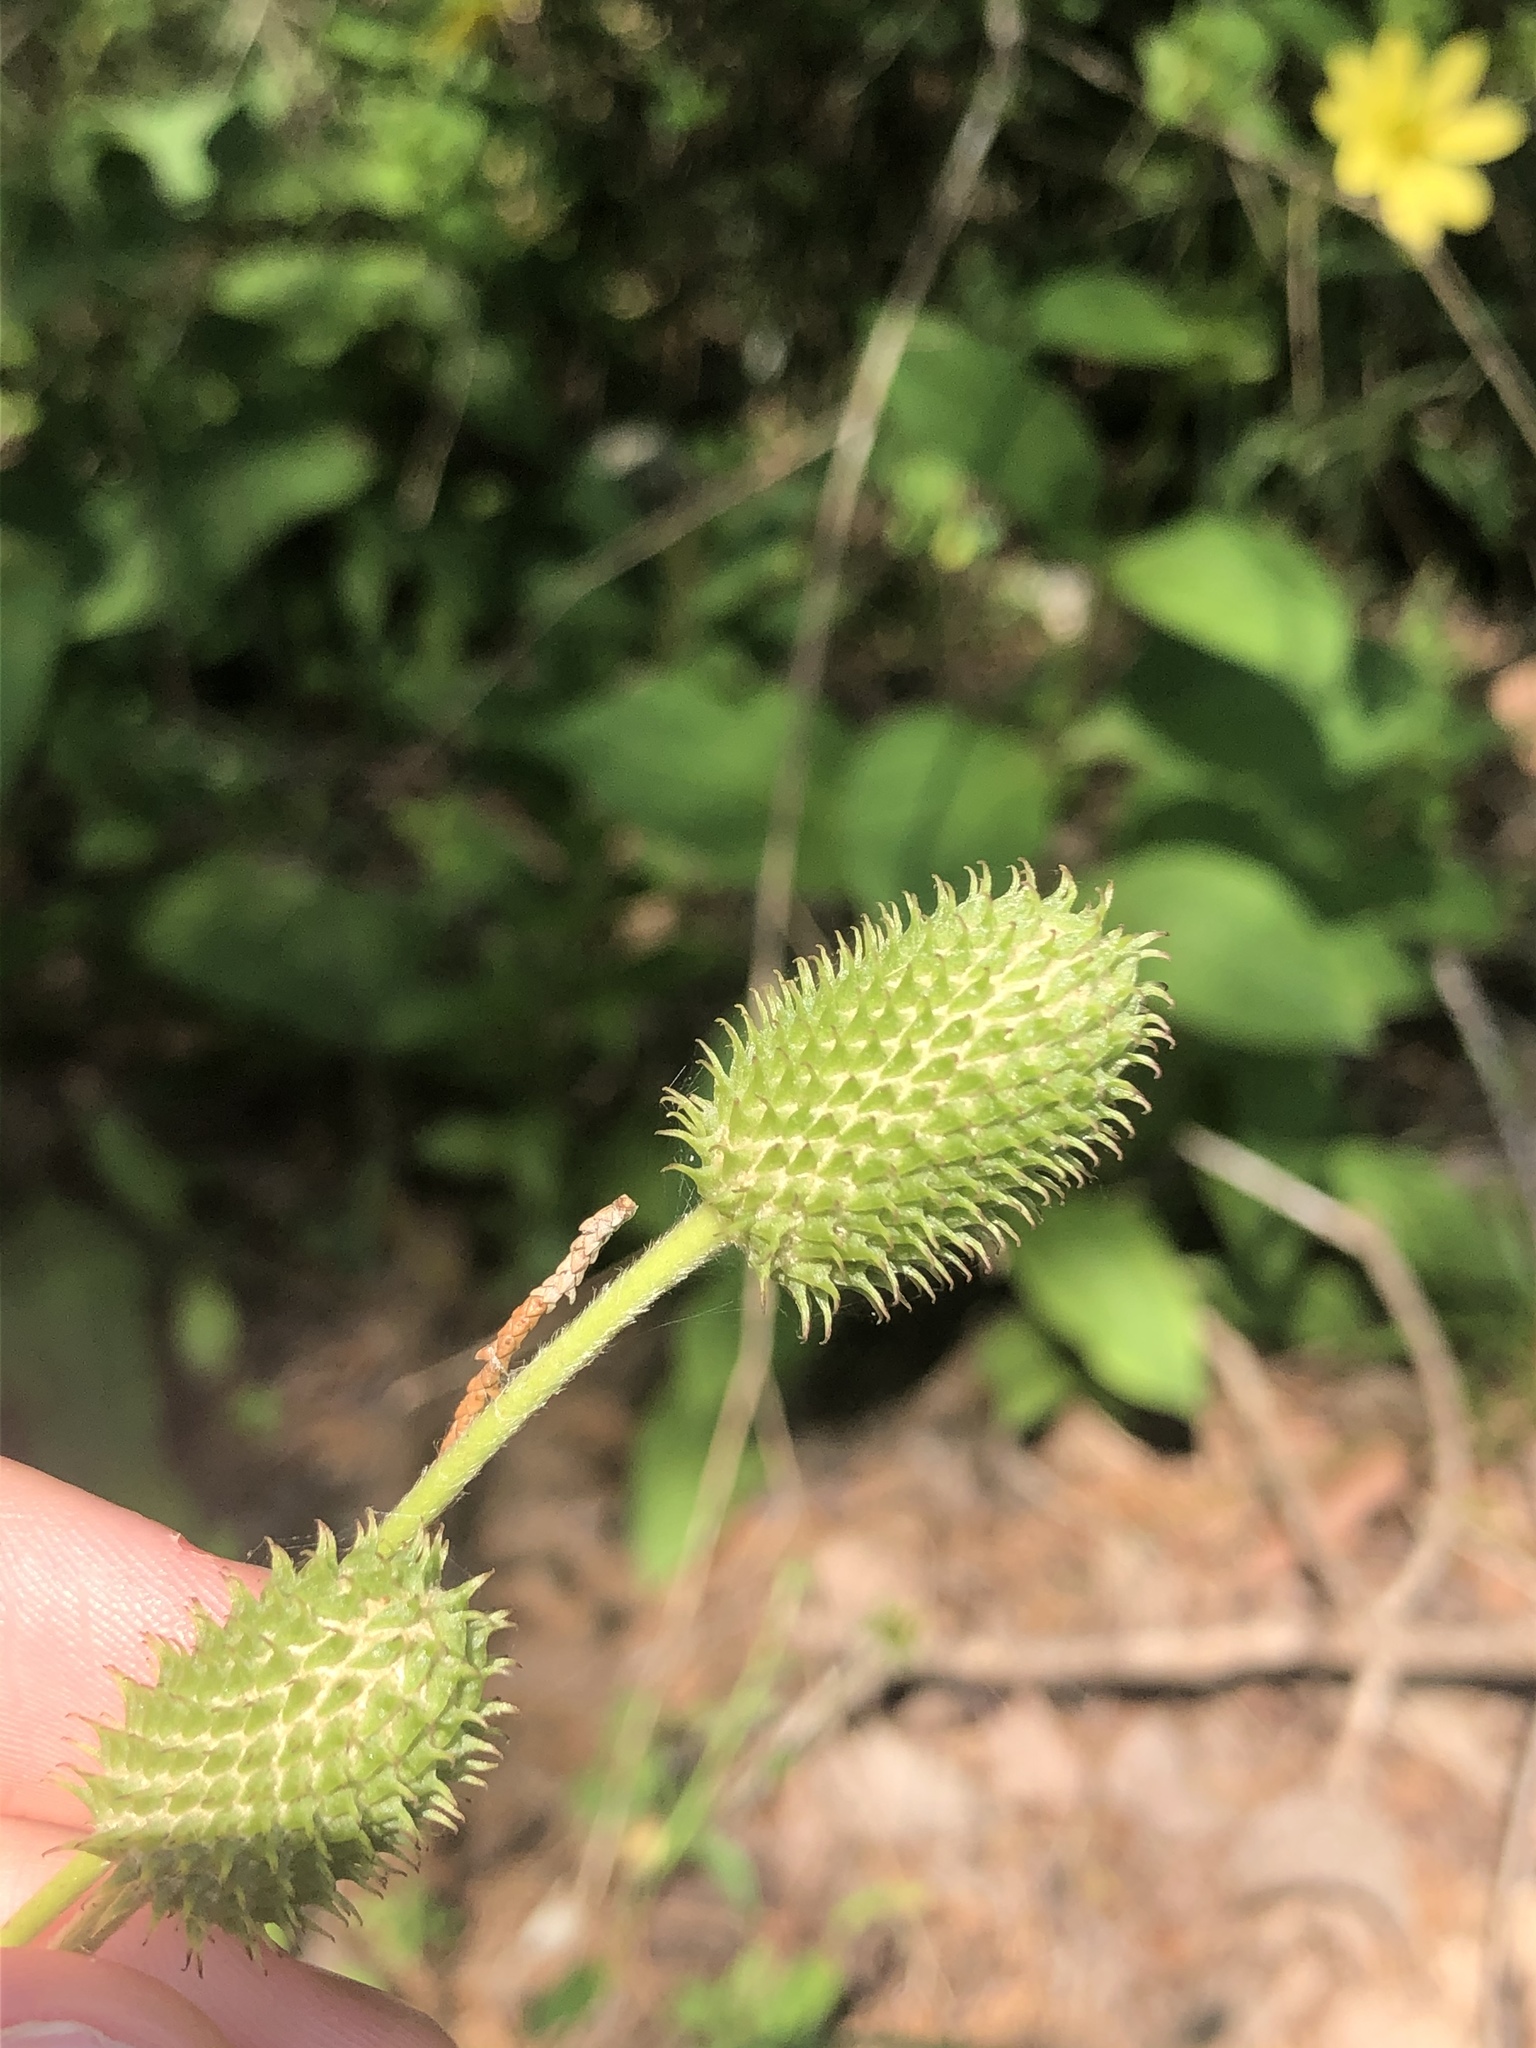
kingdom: Plantae
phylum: Tracheophyta
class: Magnoliopsida
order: Ranunculales
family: Ranunculaceae
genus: Anemone
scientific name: Anemone virginiana
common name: Tall anemone
